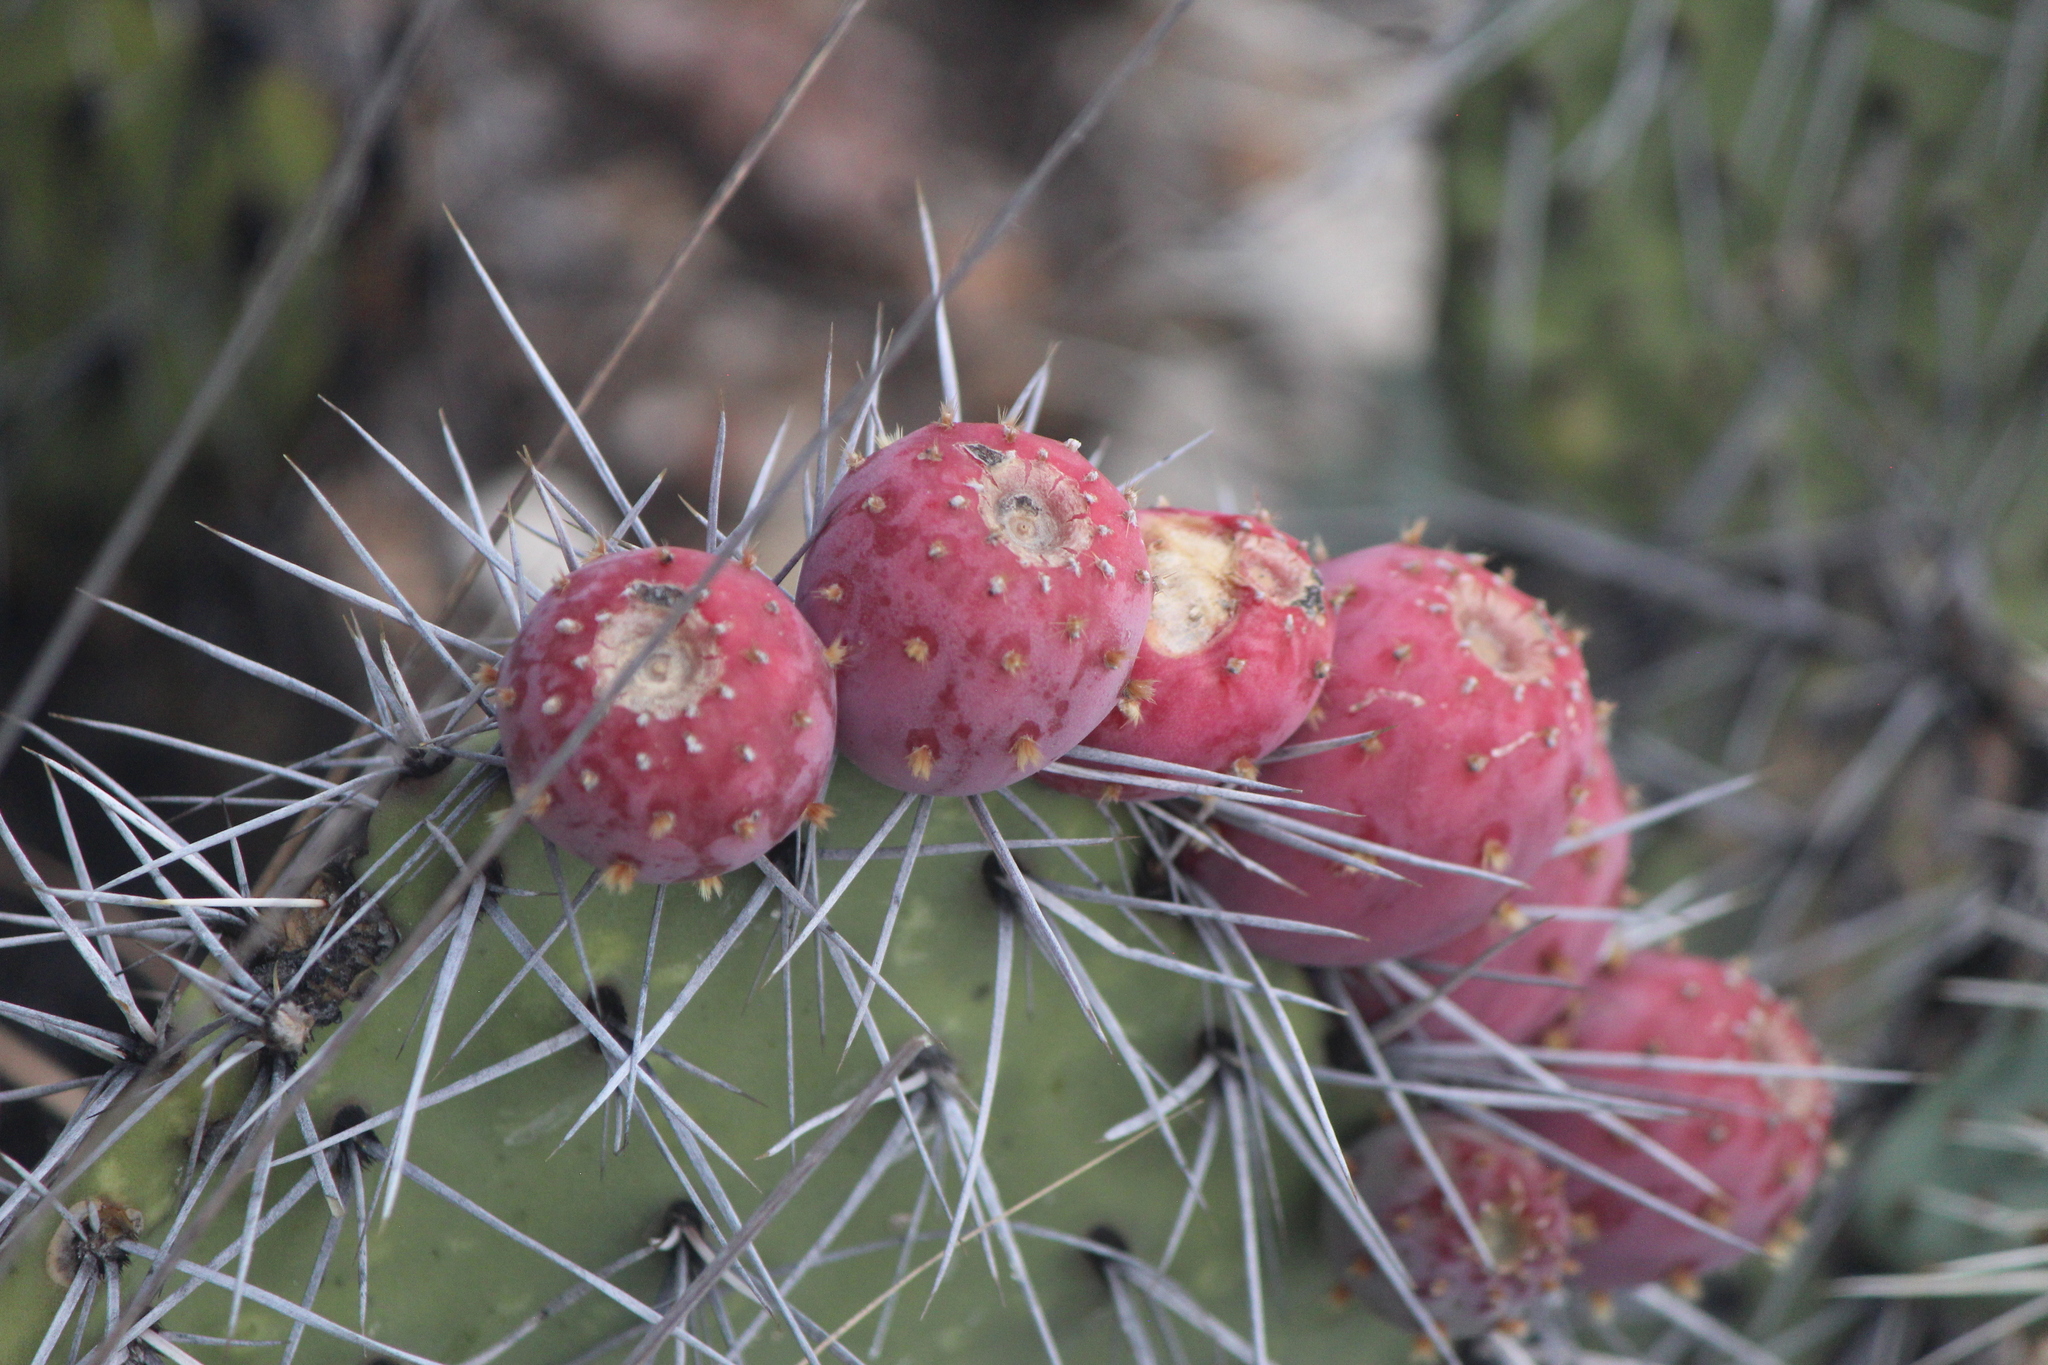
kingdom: Plantae
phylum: Tracheophyta
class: Magnoliopsida
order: Caryophyllales
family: Cactaceae
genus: Opuntia
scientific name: Opuntia stenopetala
